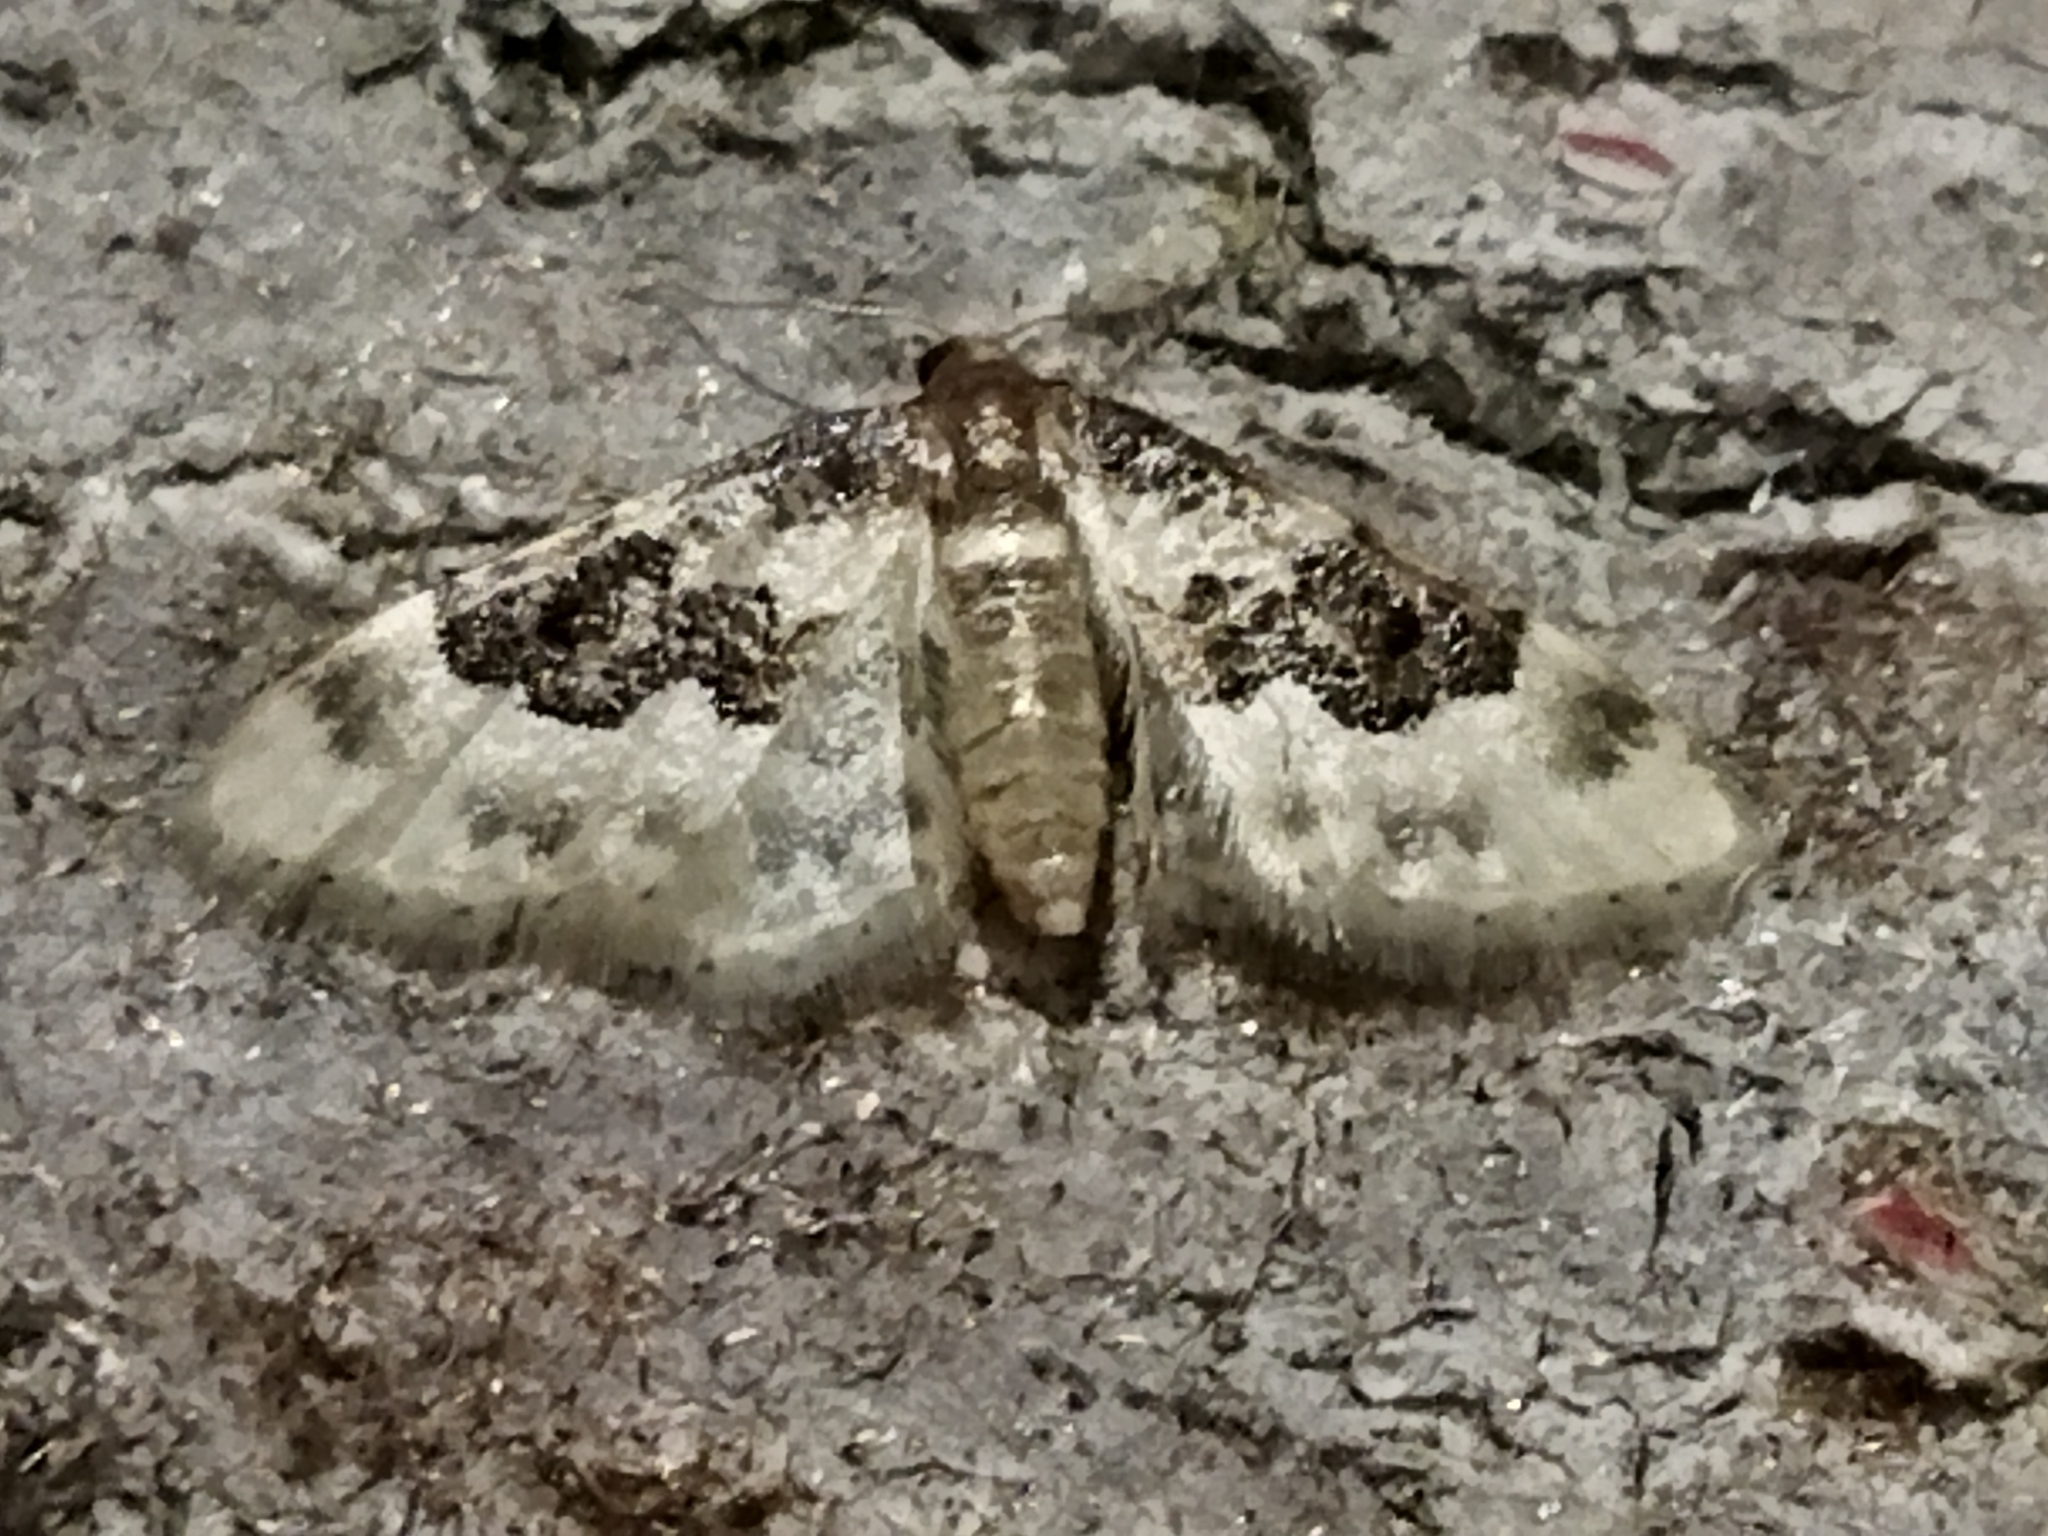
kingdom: Animalia
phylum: Arthropoda
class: Insecta
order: Lepidoptera
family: Geometridae
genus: Idaea
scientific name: Idaea rusticata
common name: Least carpet
